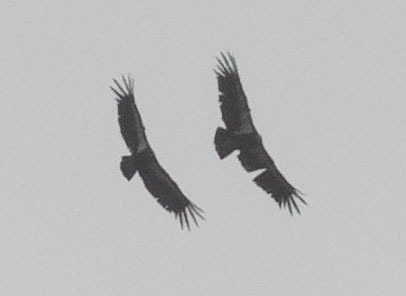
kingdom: Animalia
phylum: Chordata
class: Aves
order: Accipitriformes
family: Cathartidae
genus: Gymnogyps
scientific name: Gymnogyps californianus
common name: California condor
